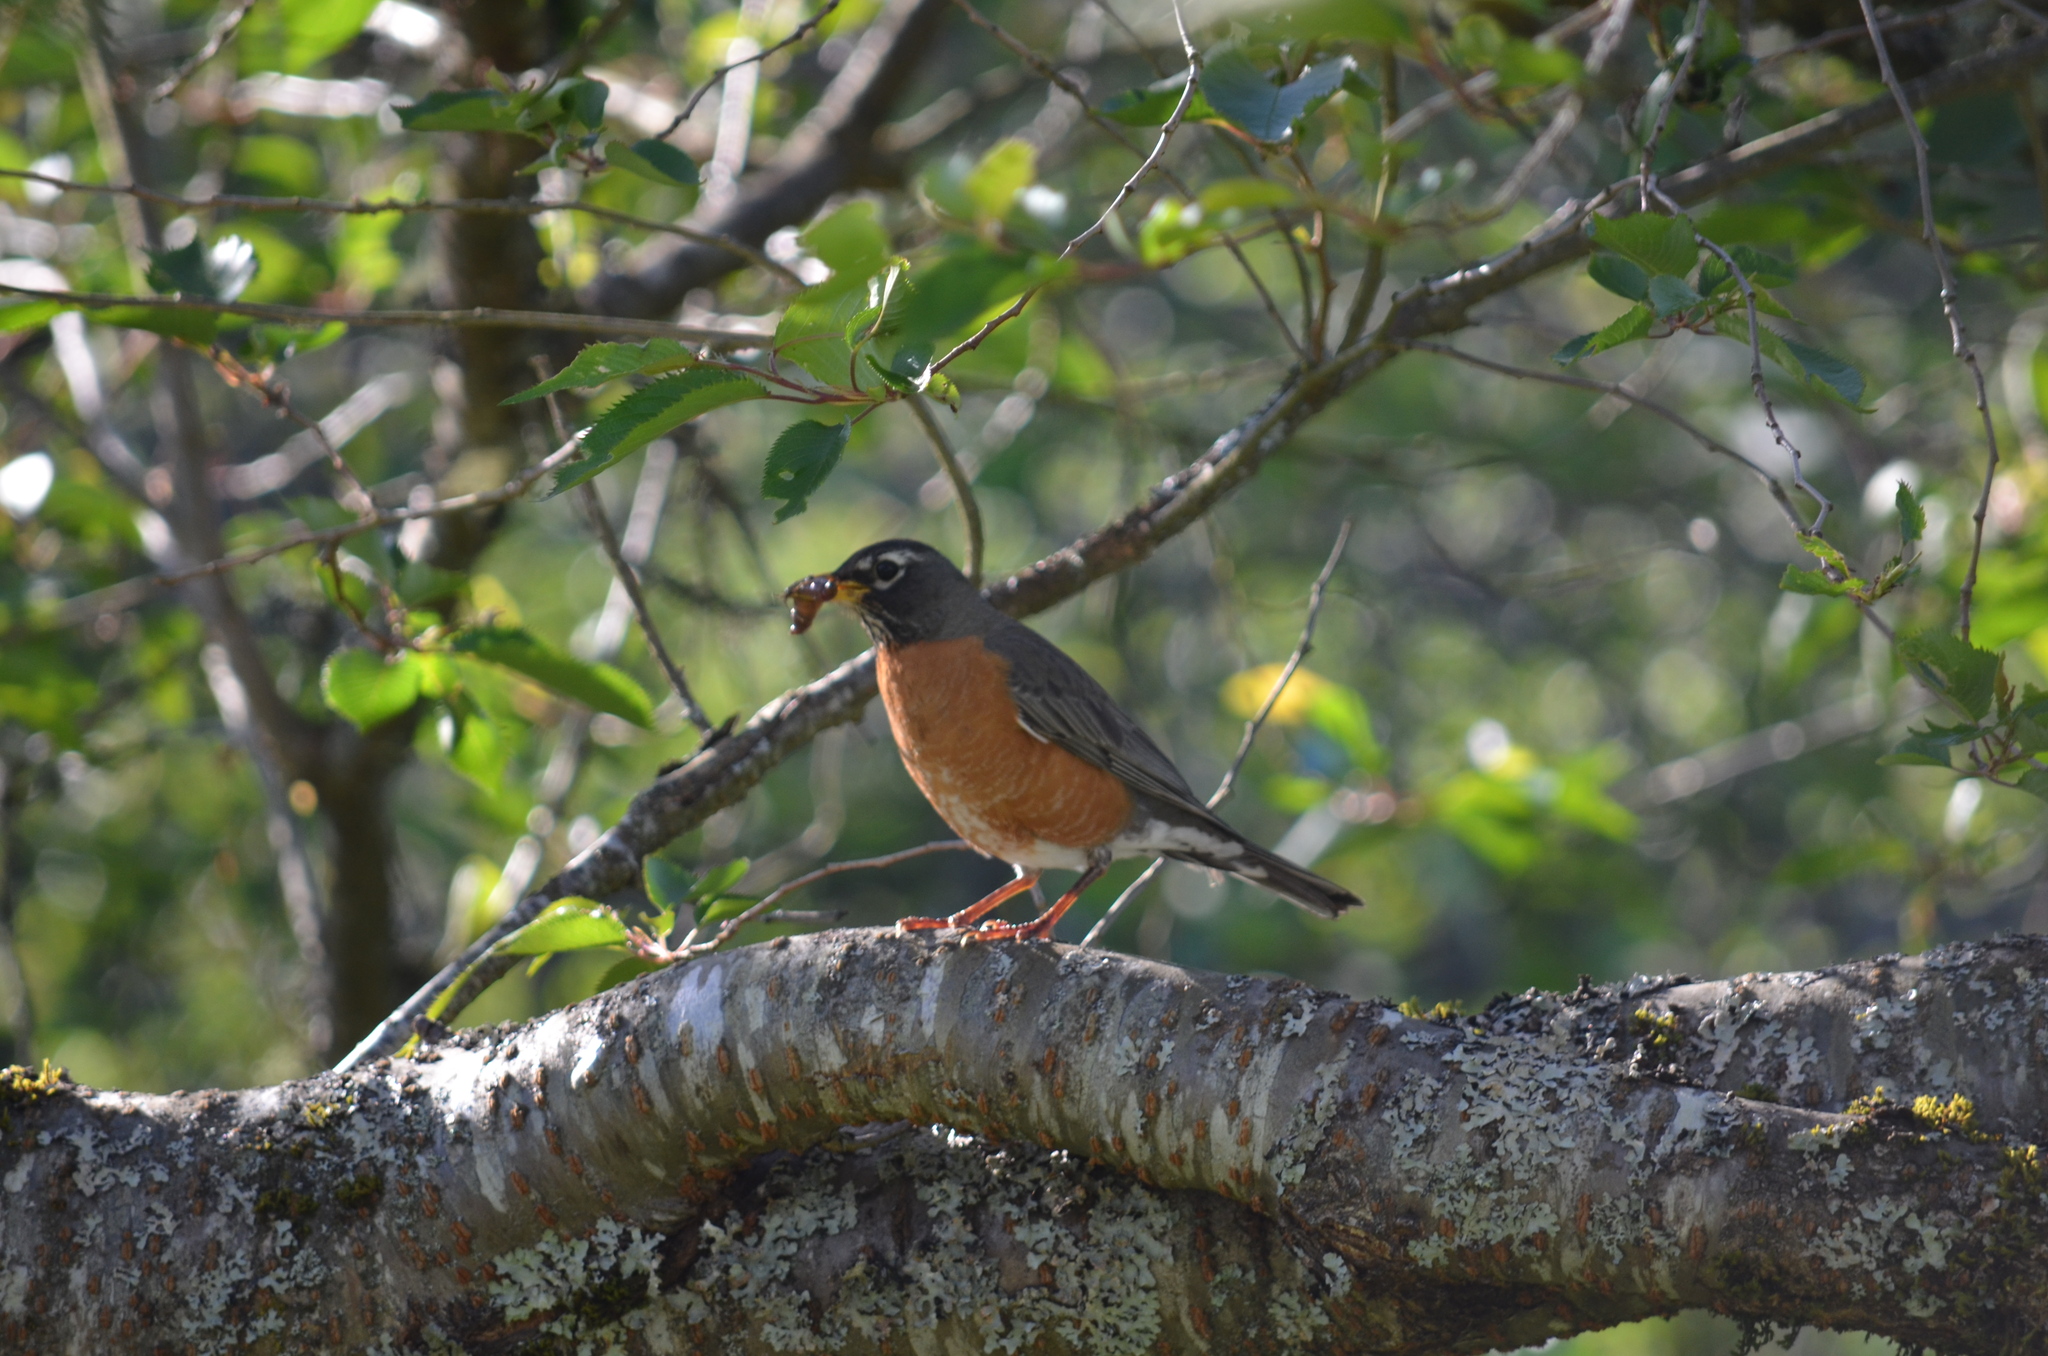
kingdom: Animalia
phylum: Chordata
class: Aves
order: Passeriformes
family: Turdidae
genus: Turdus
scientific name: Turdus migratorius
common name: American robin
